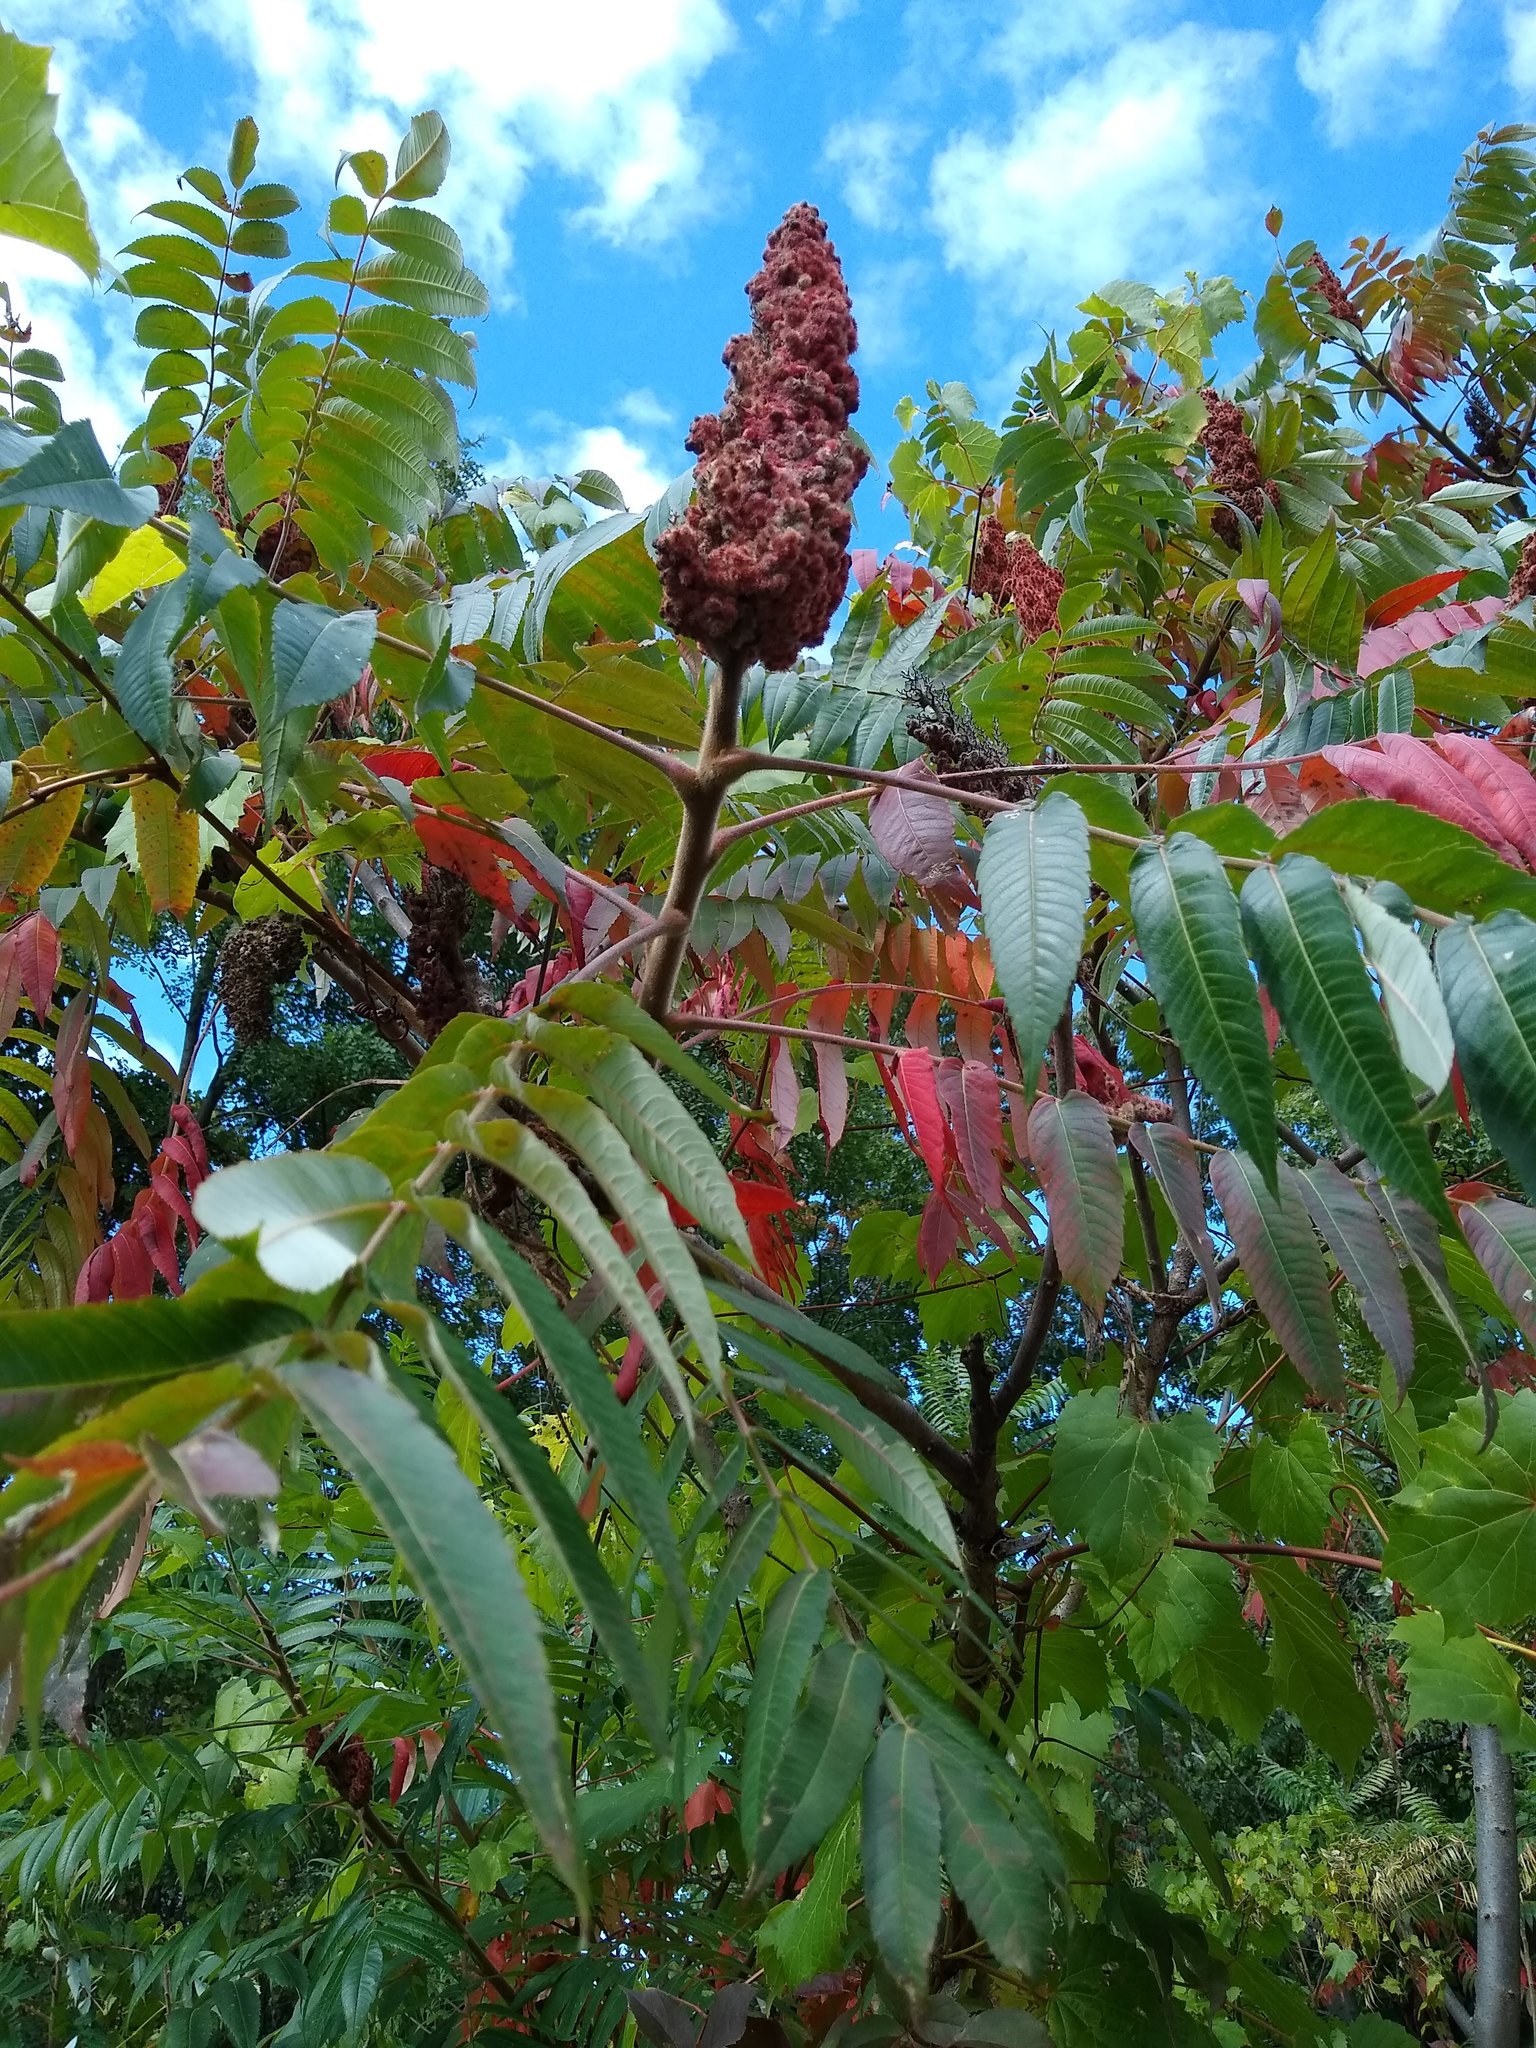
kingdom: Plantae
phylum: Tracheophyta
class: Magnoliopsida
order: Sapindales
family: Anacardiaceae
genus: Rhus
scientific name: Rhus typhina
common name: Staghorn sumac
